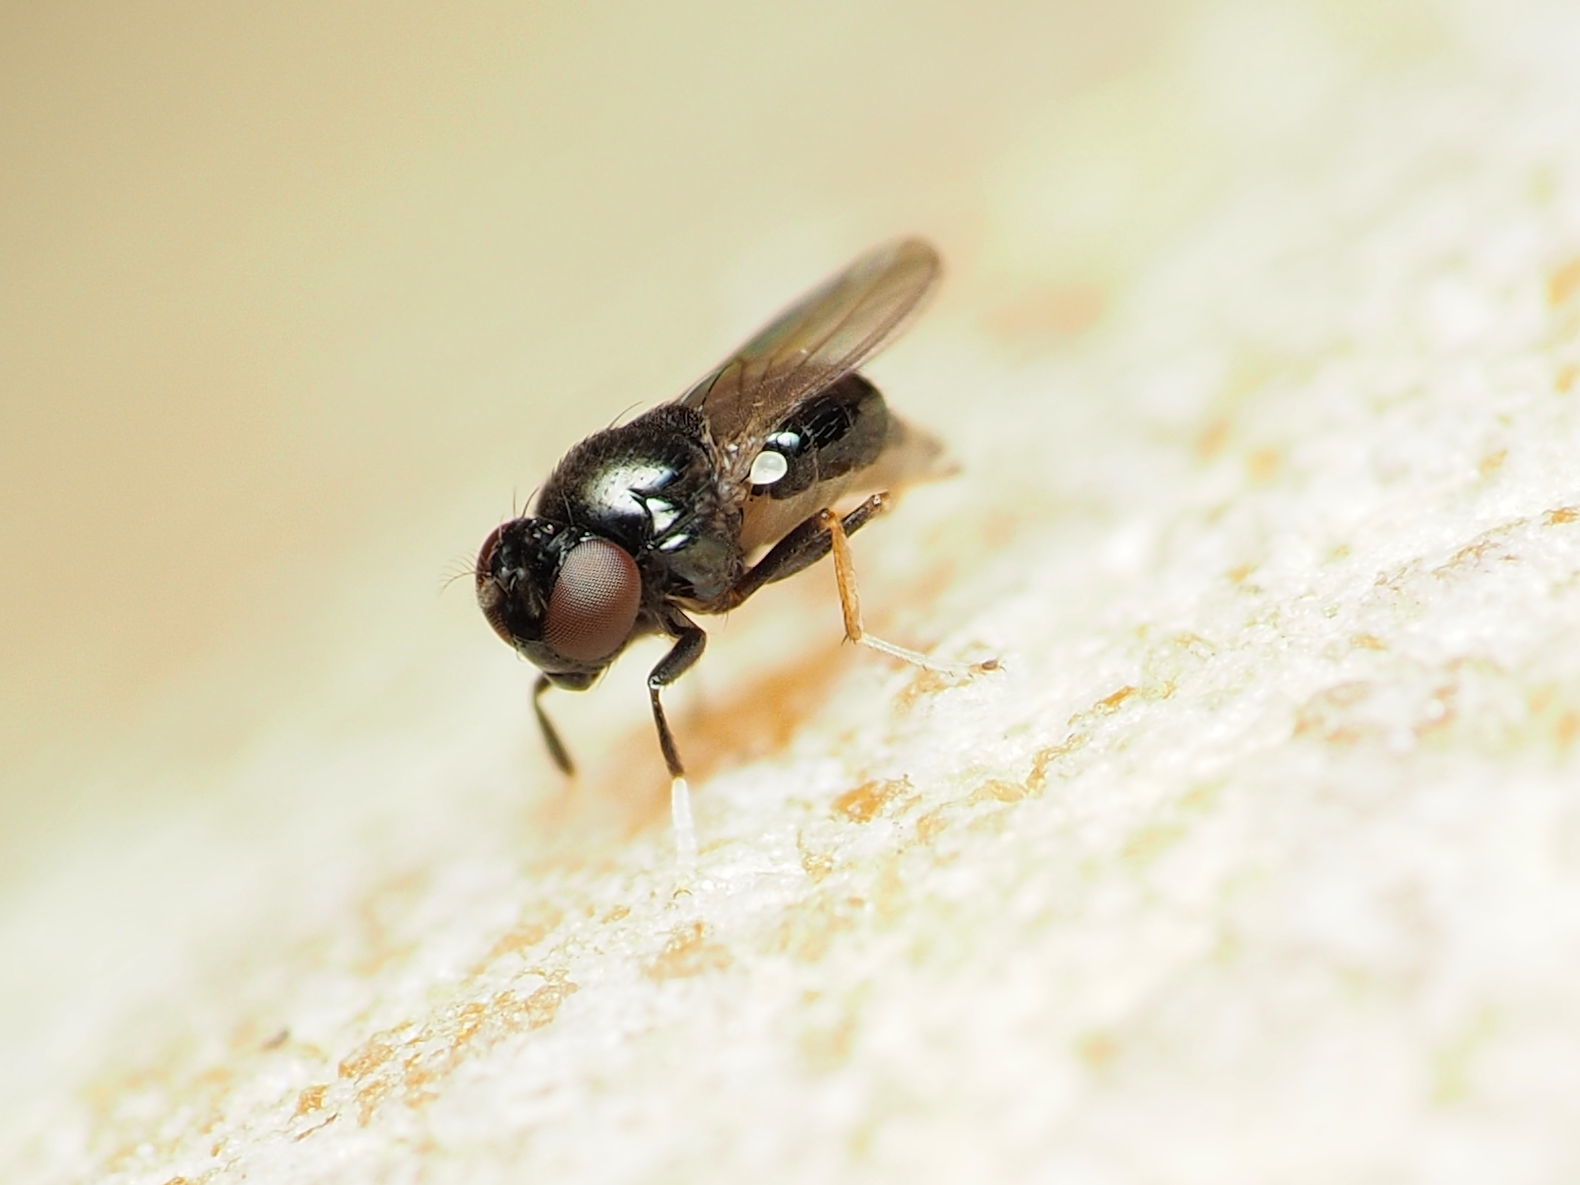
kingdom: Animalia
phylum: Arthropoda
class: Insecta
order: Diptera
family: Ephydridae
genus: Athyroglossa
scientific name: Athyroglossa glaphyropus
